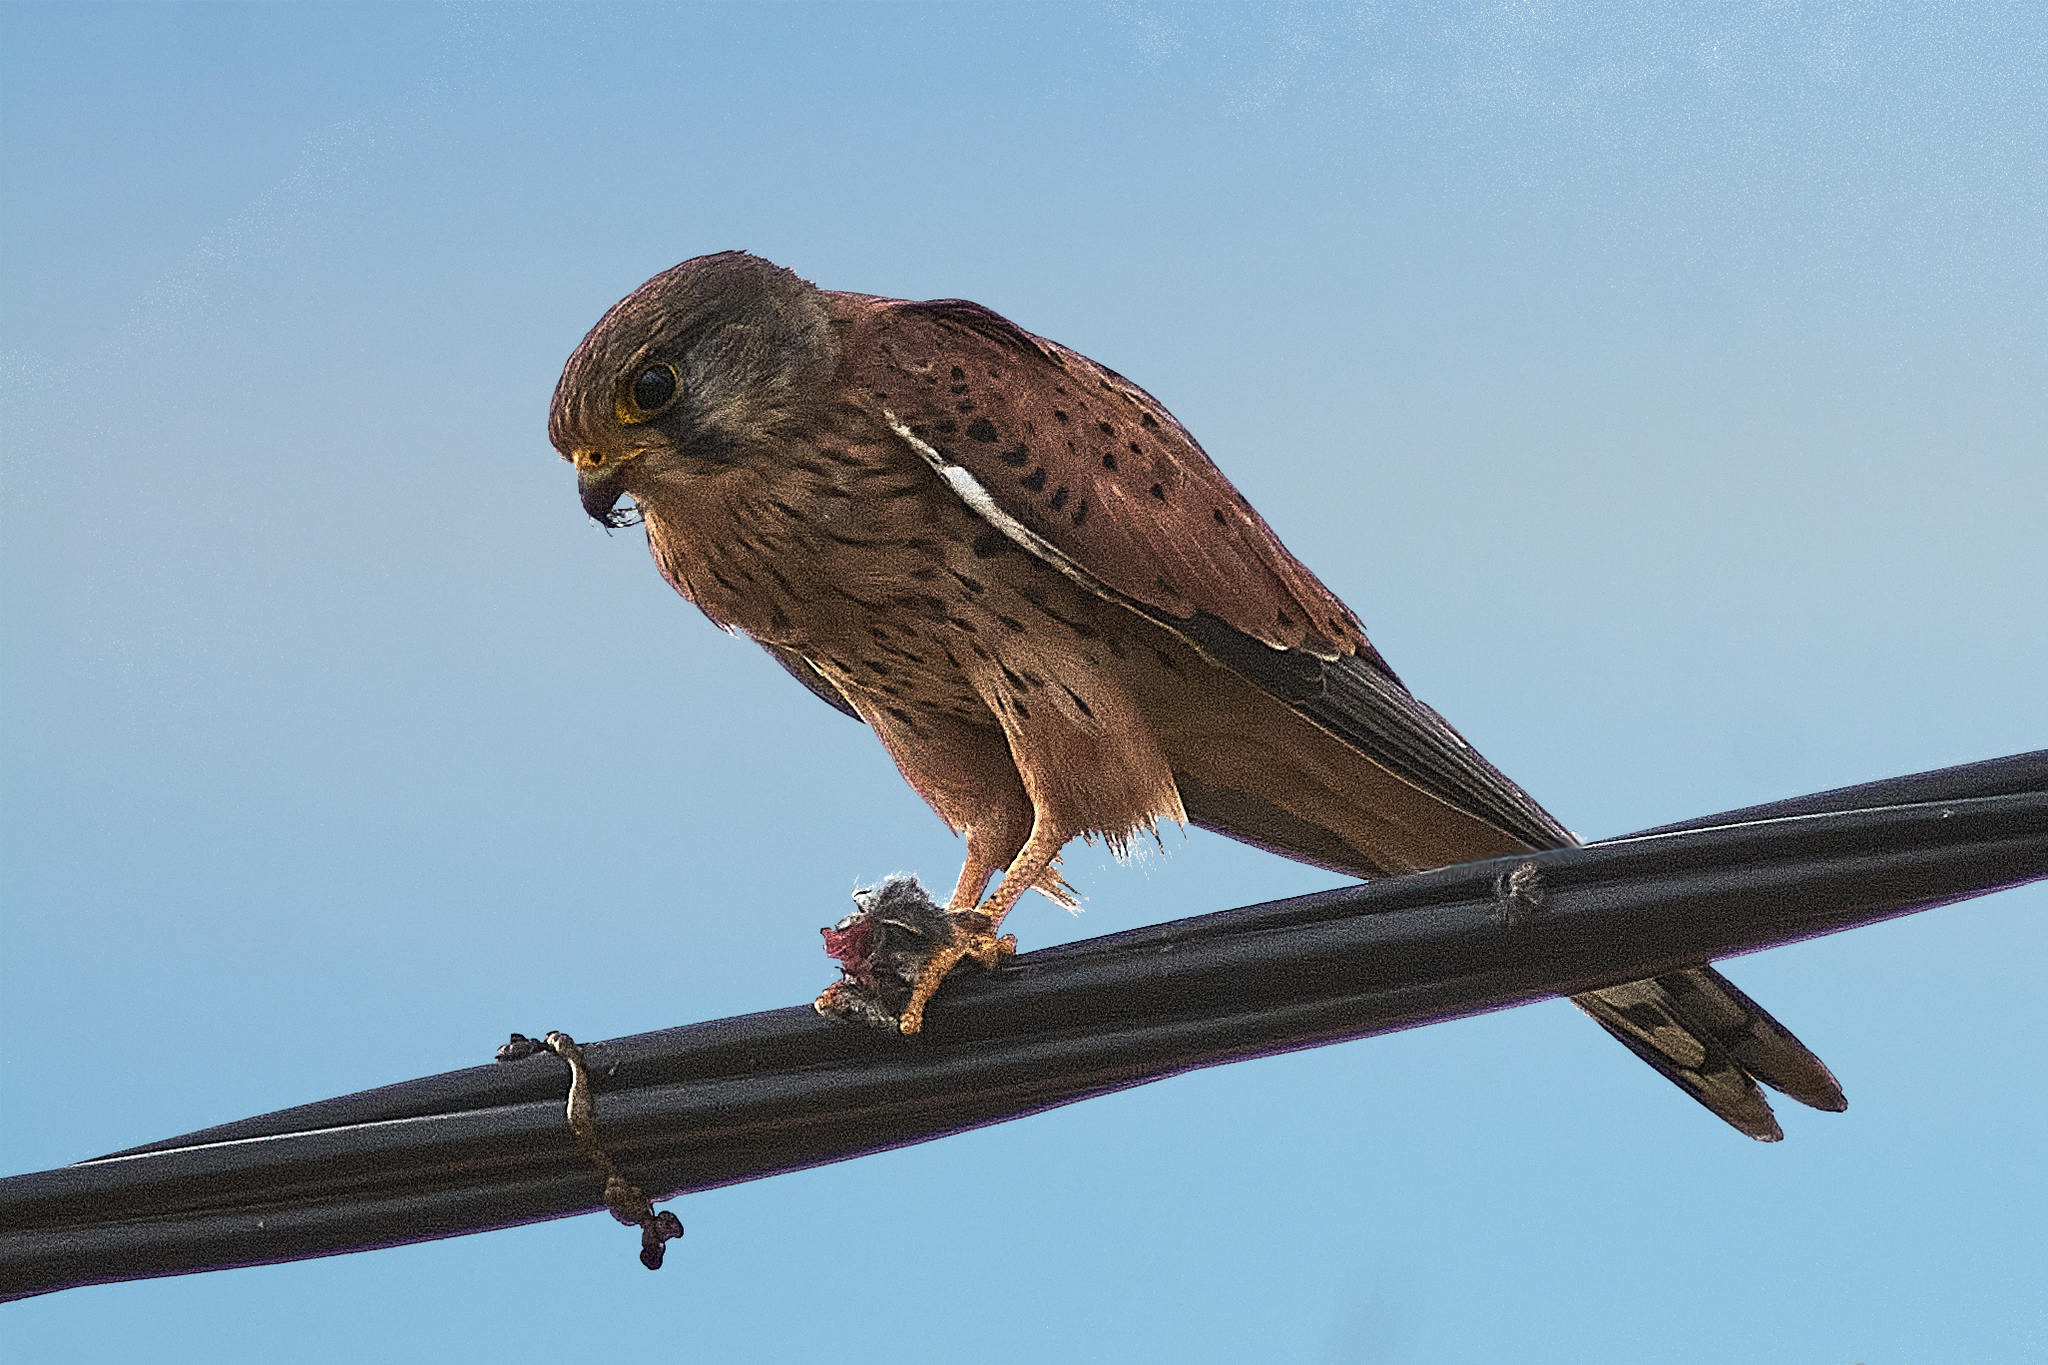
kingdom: Animalia
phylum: Chordata
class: Aves
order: Falconiformes
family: Falconidae
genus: Falco
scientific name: Falco tinnunculus
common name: Common kestrel
